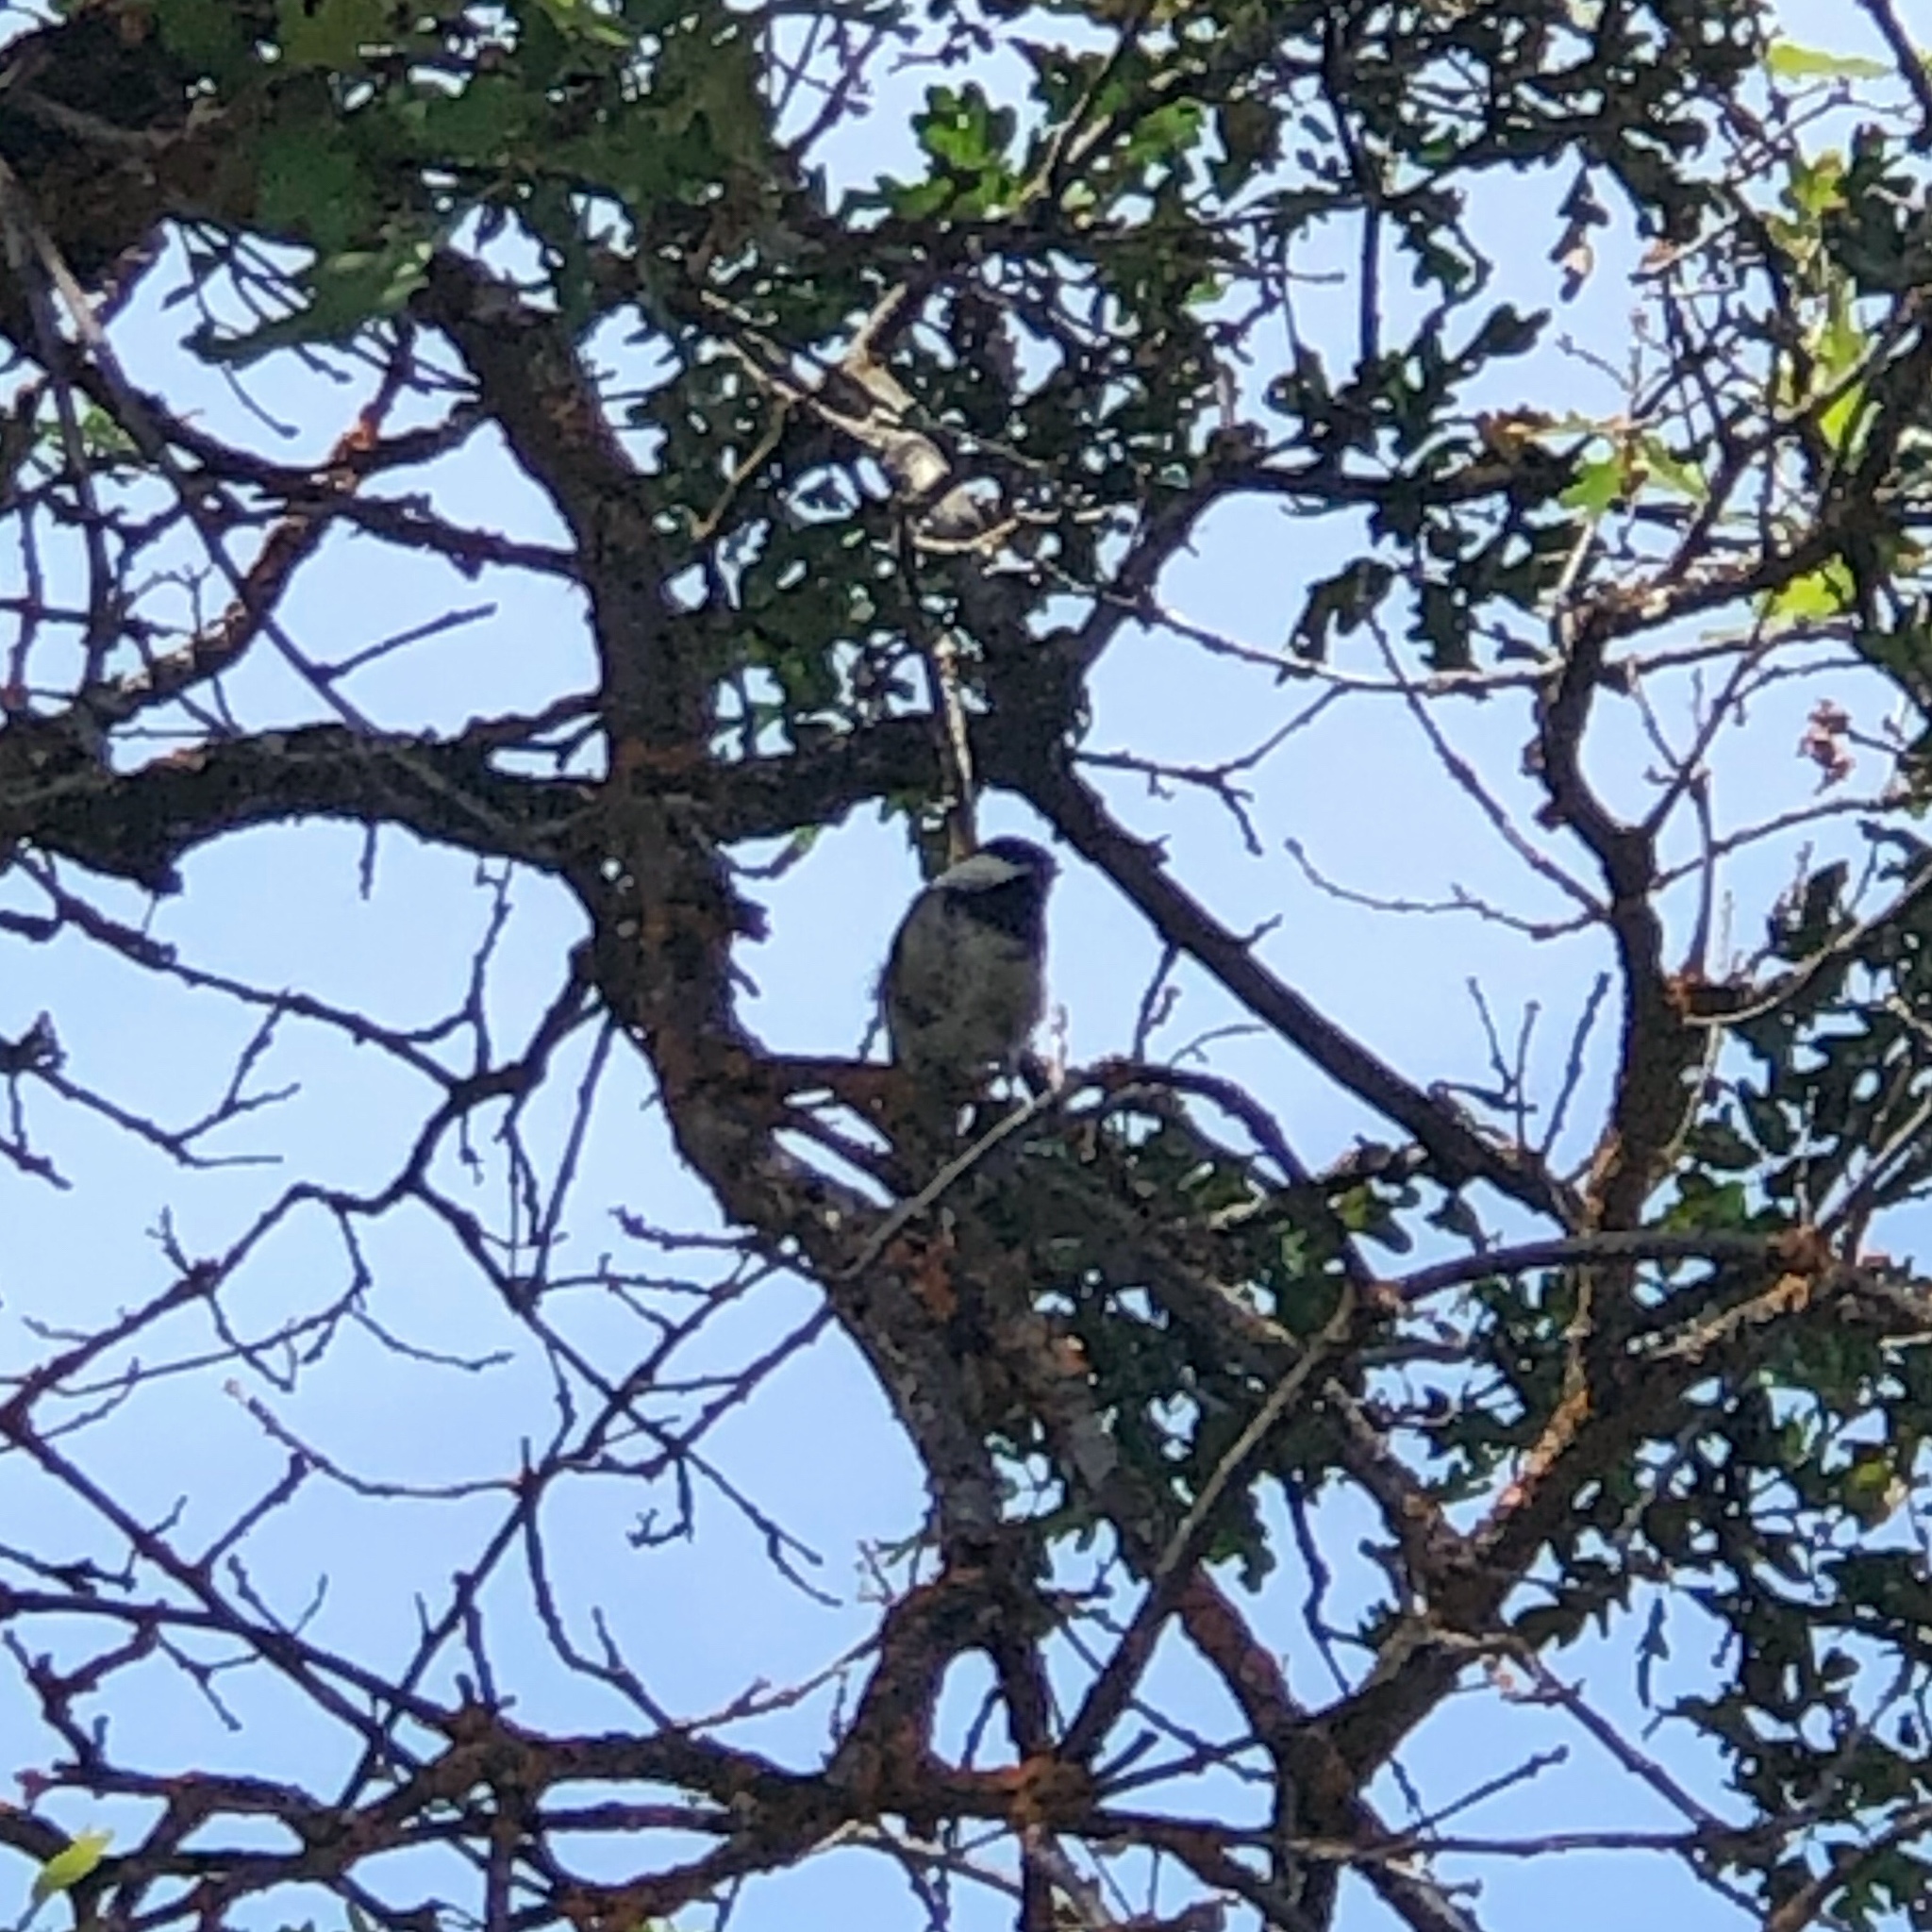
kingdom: Animalia
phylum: Chordata
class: Aves
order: Passeriformes
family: Paridae
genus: Poecile
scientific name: Poecile atricapillus
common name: Black-capped chickadee
